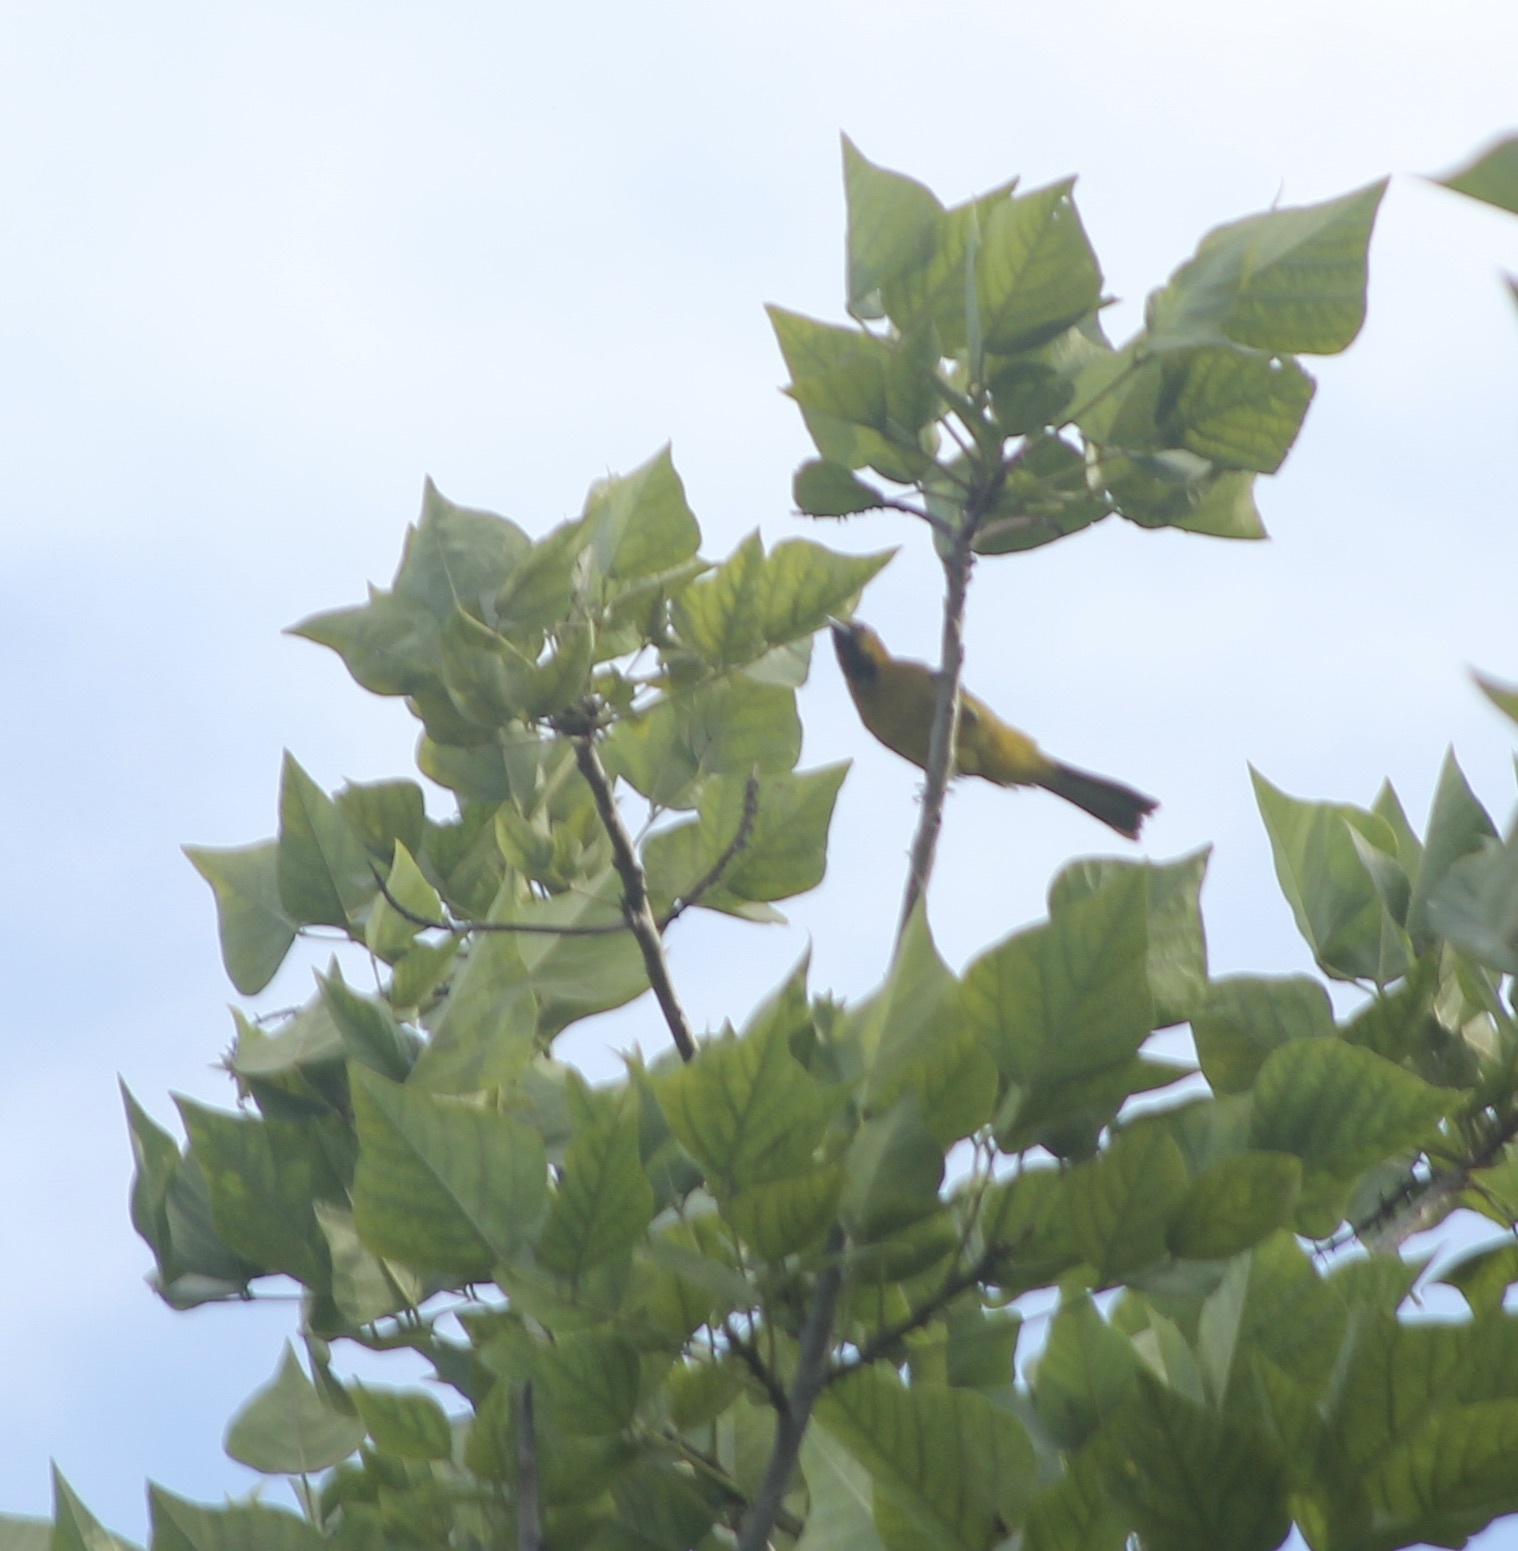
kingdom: Animalia
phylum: Chordata
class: Aves
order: Passeriformes
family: Icteridae
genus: Icterus
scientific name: Icterus cucullatus
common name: Hooded oriole
